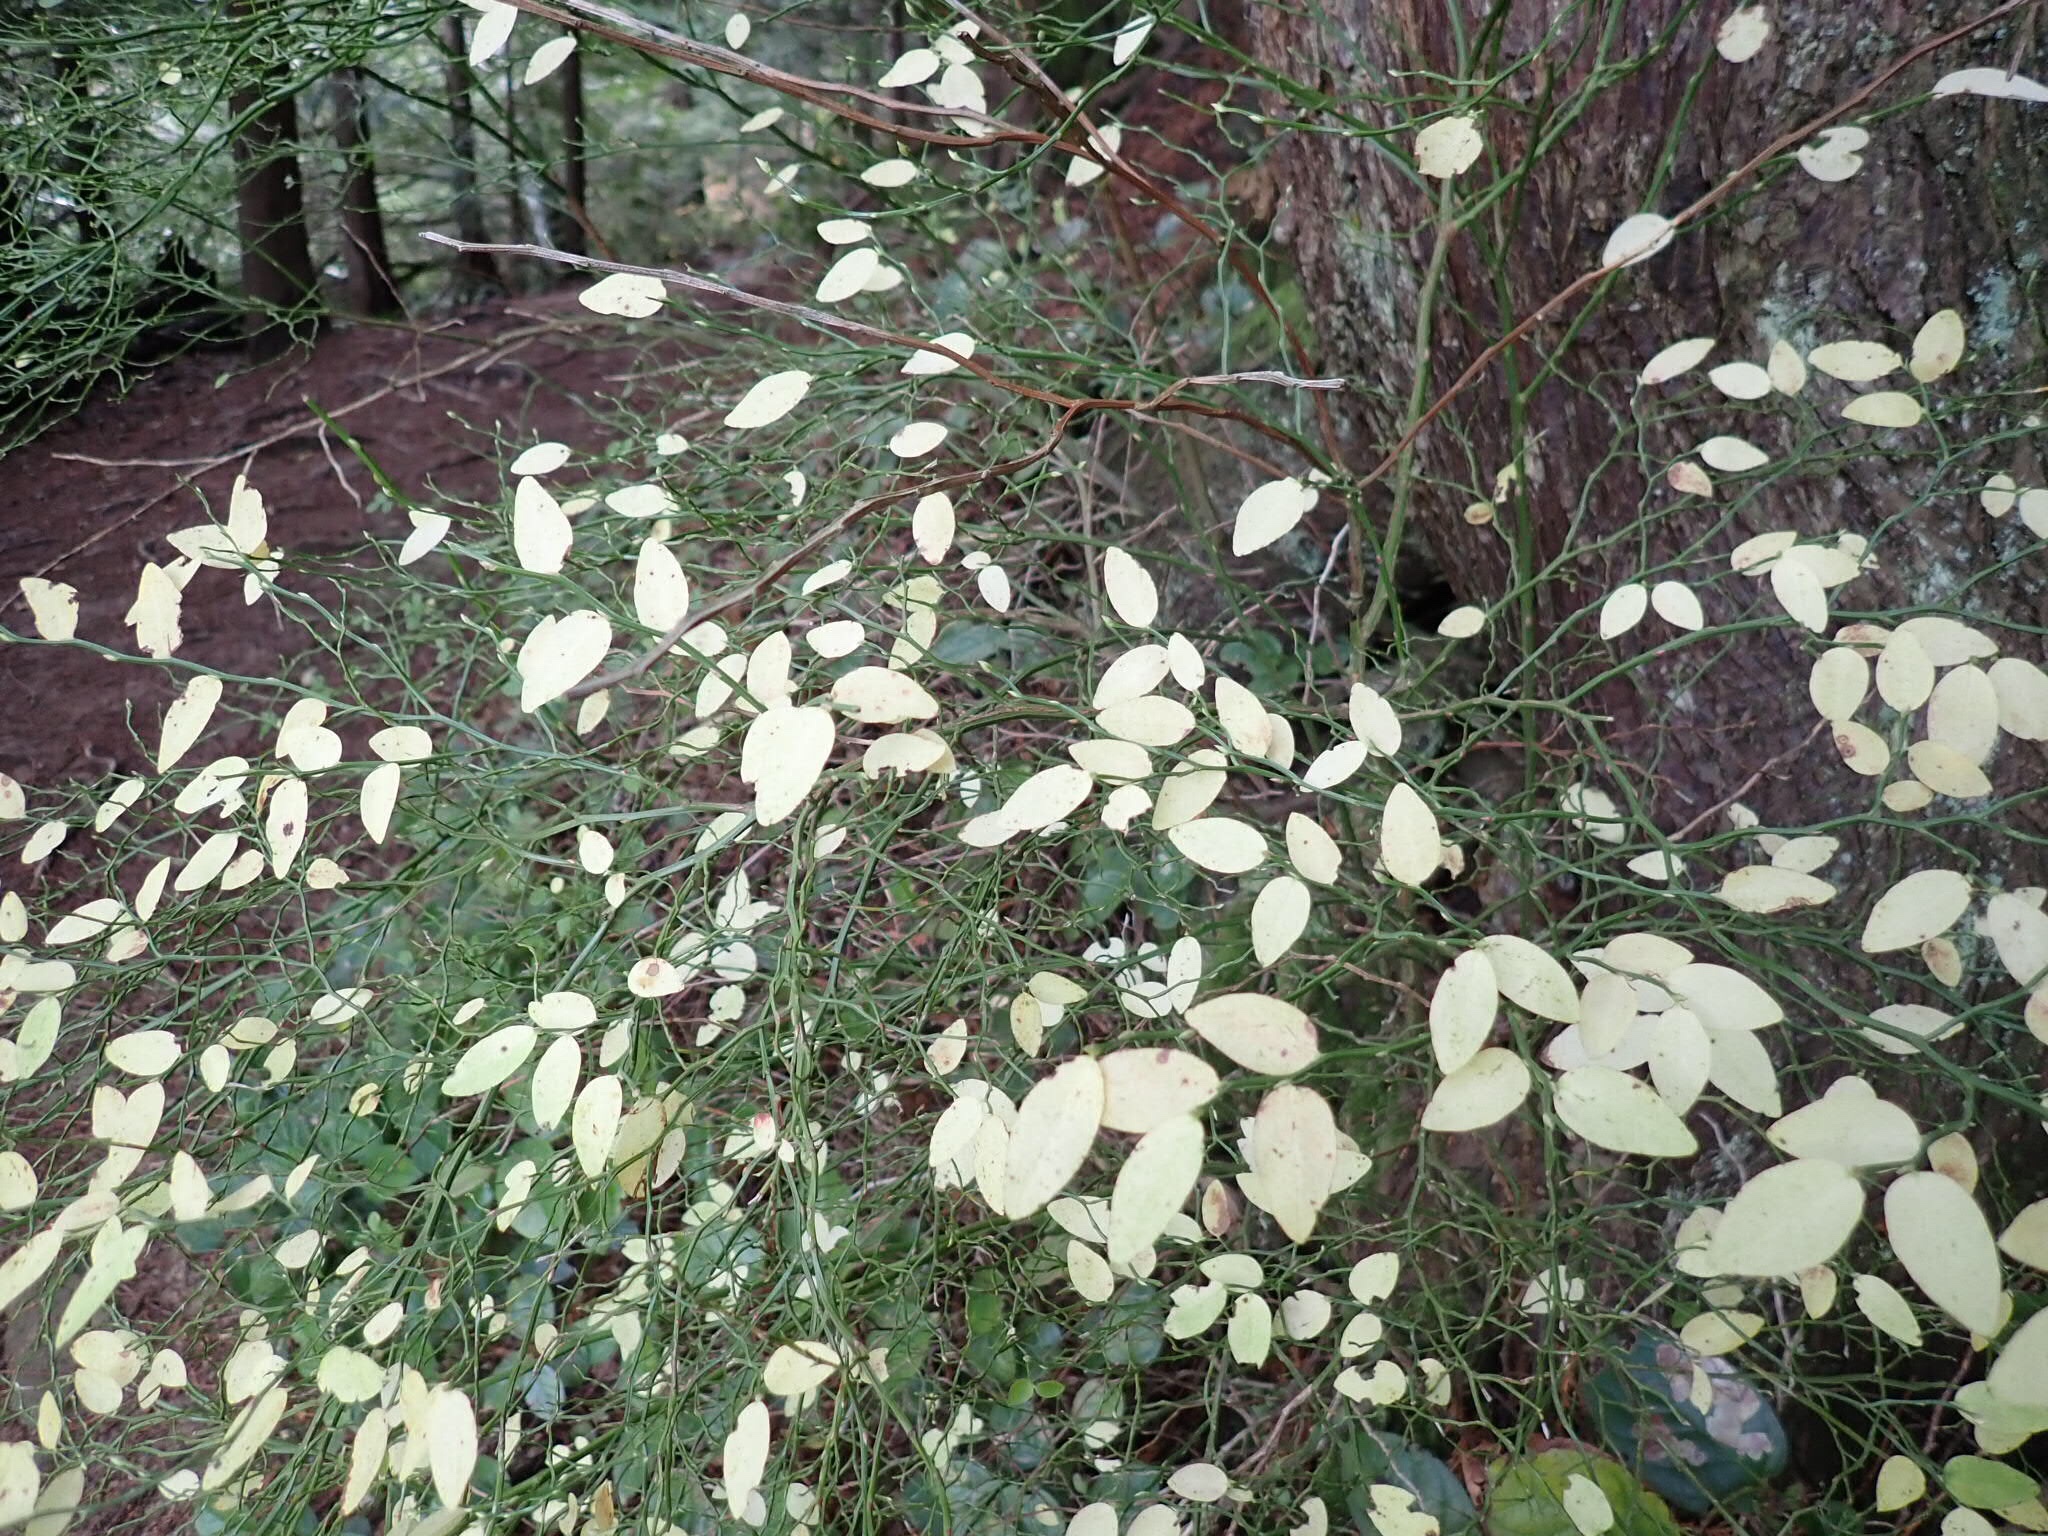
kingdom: Plantae
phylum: Tracheophyta
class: Magnoliopsida
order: Ericales
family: Ericaceae
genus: Vaccinium
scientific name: Vaccinium parvifolium
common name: Red-huckleberry
